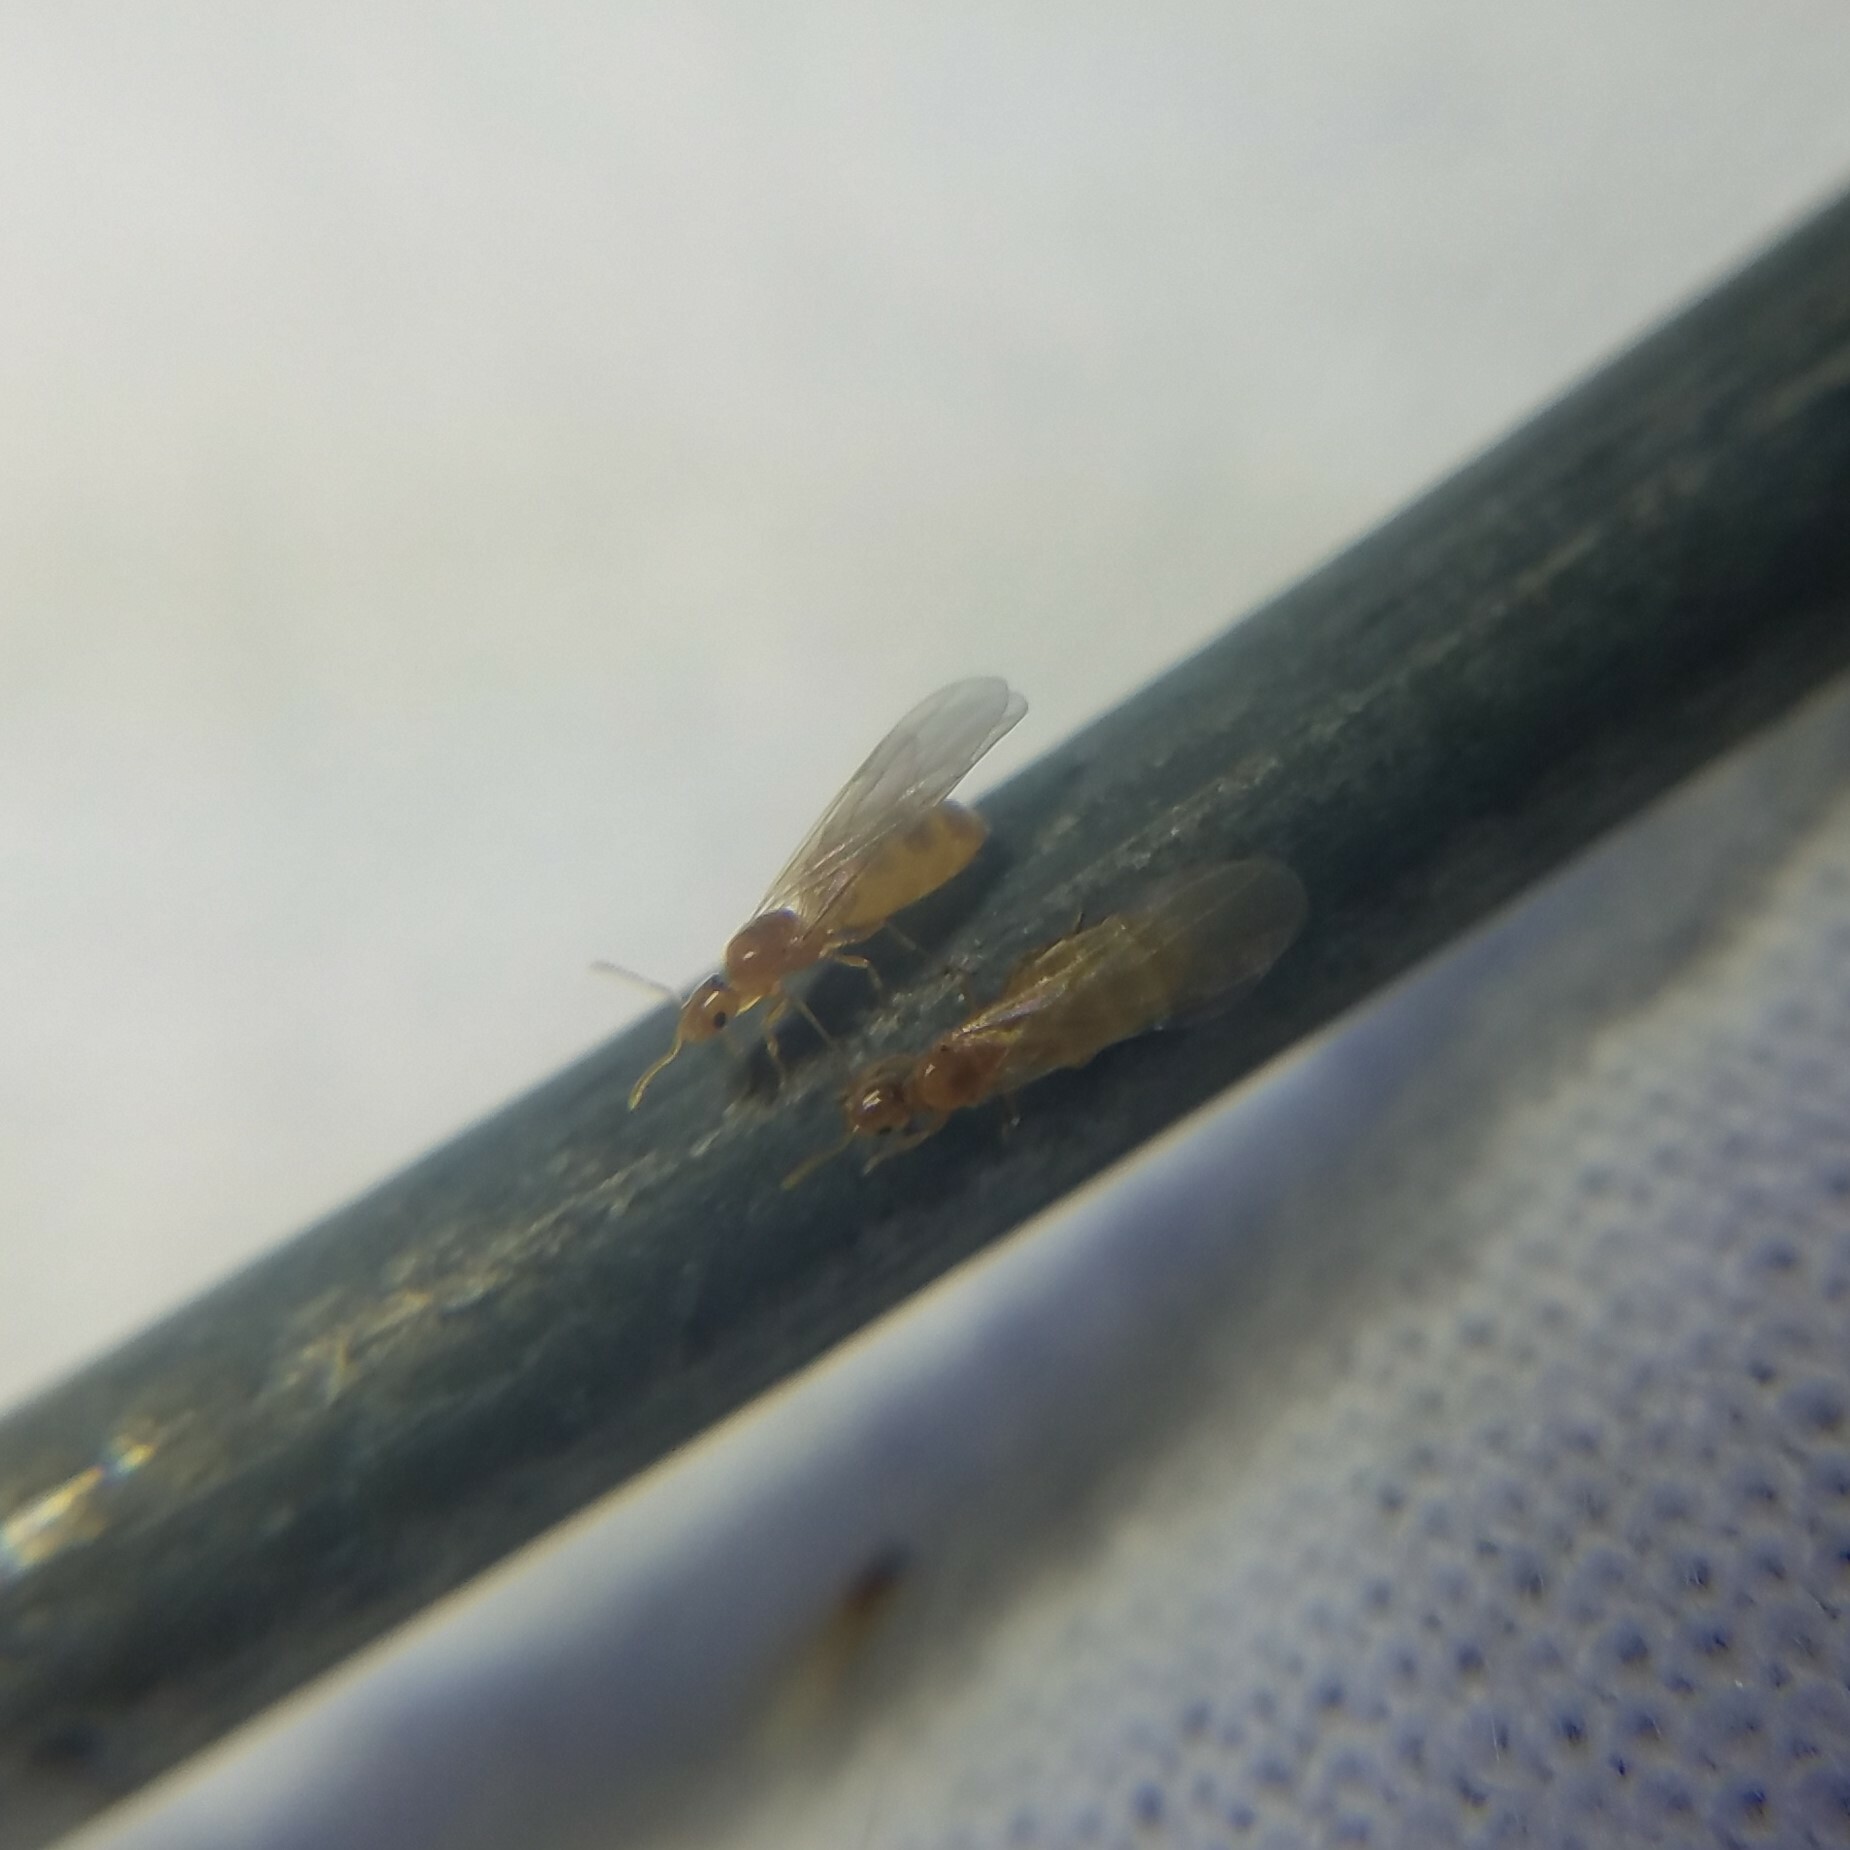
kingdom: Animalia
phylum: Arthropoda
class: Insecta
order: Hymenoptera
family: Formicidae
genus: Brachymyrmex
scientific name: Brachymyrmex depilis
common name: Hairless rover ant
